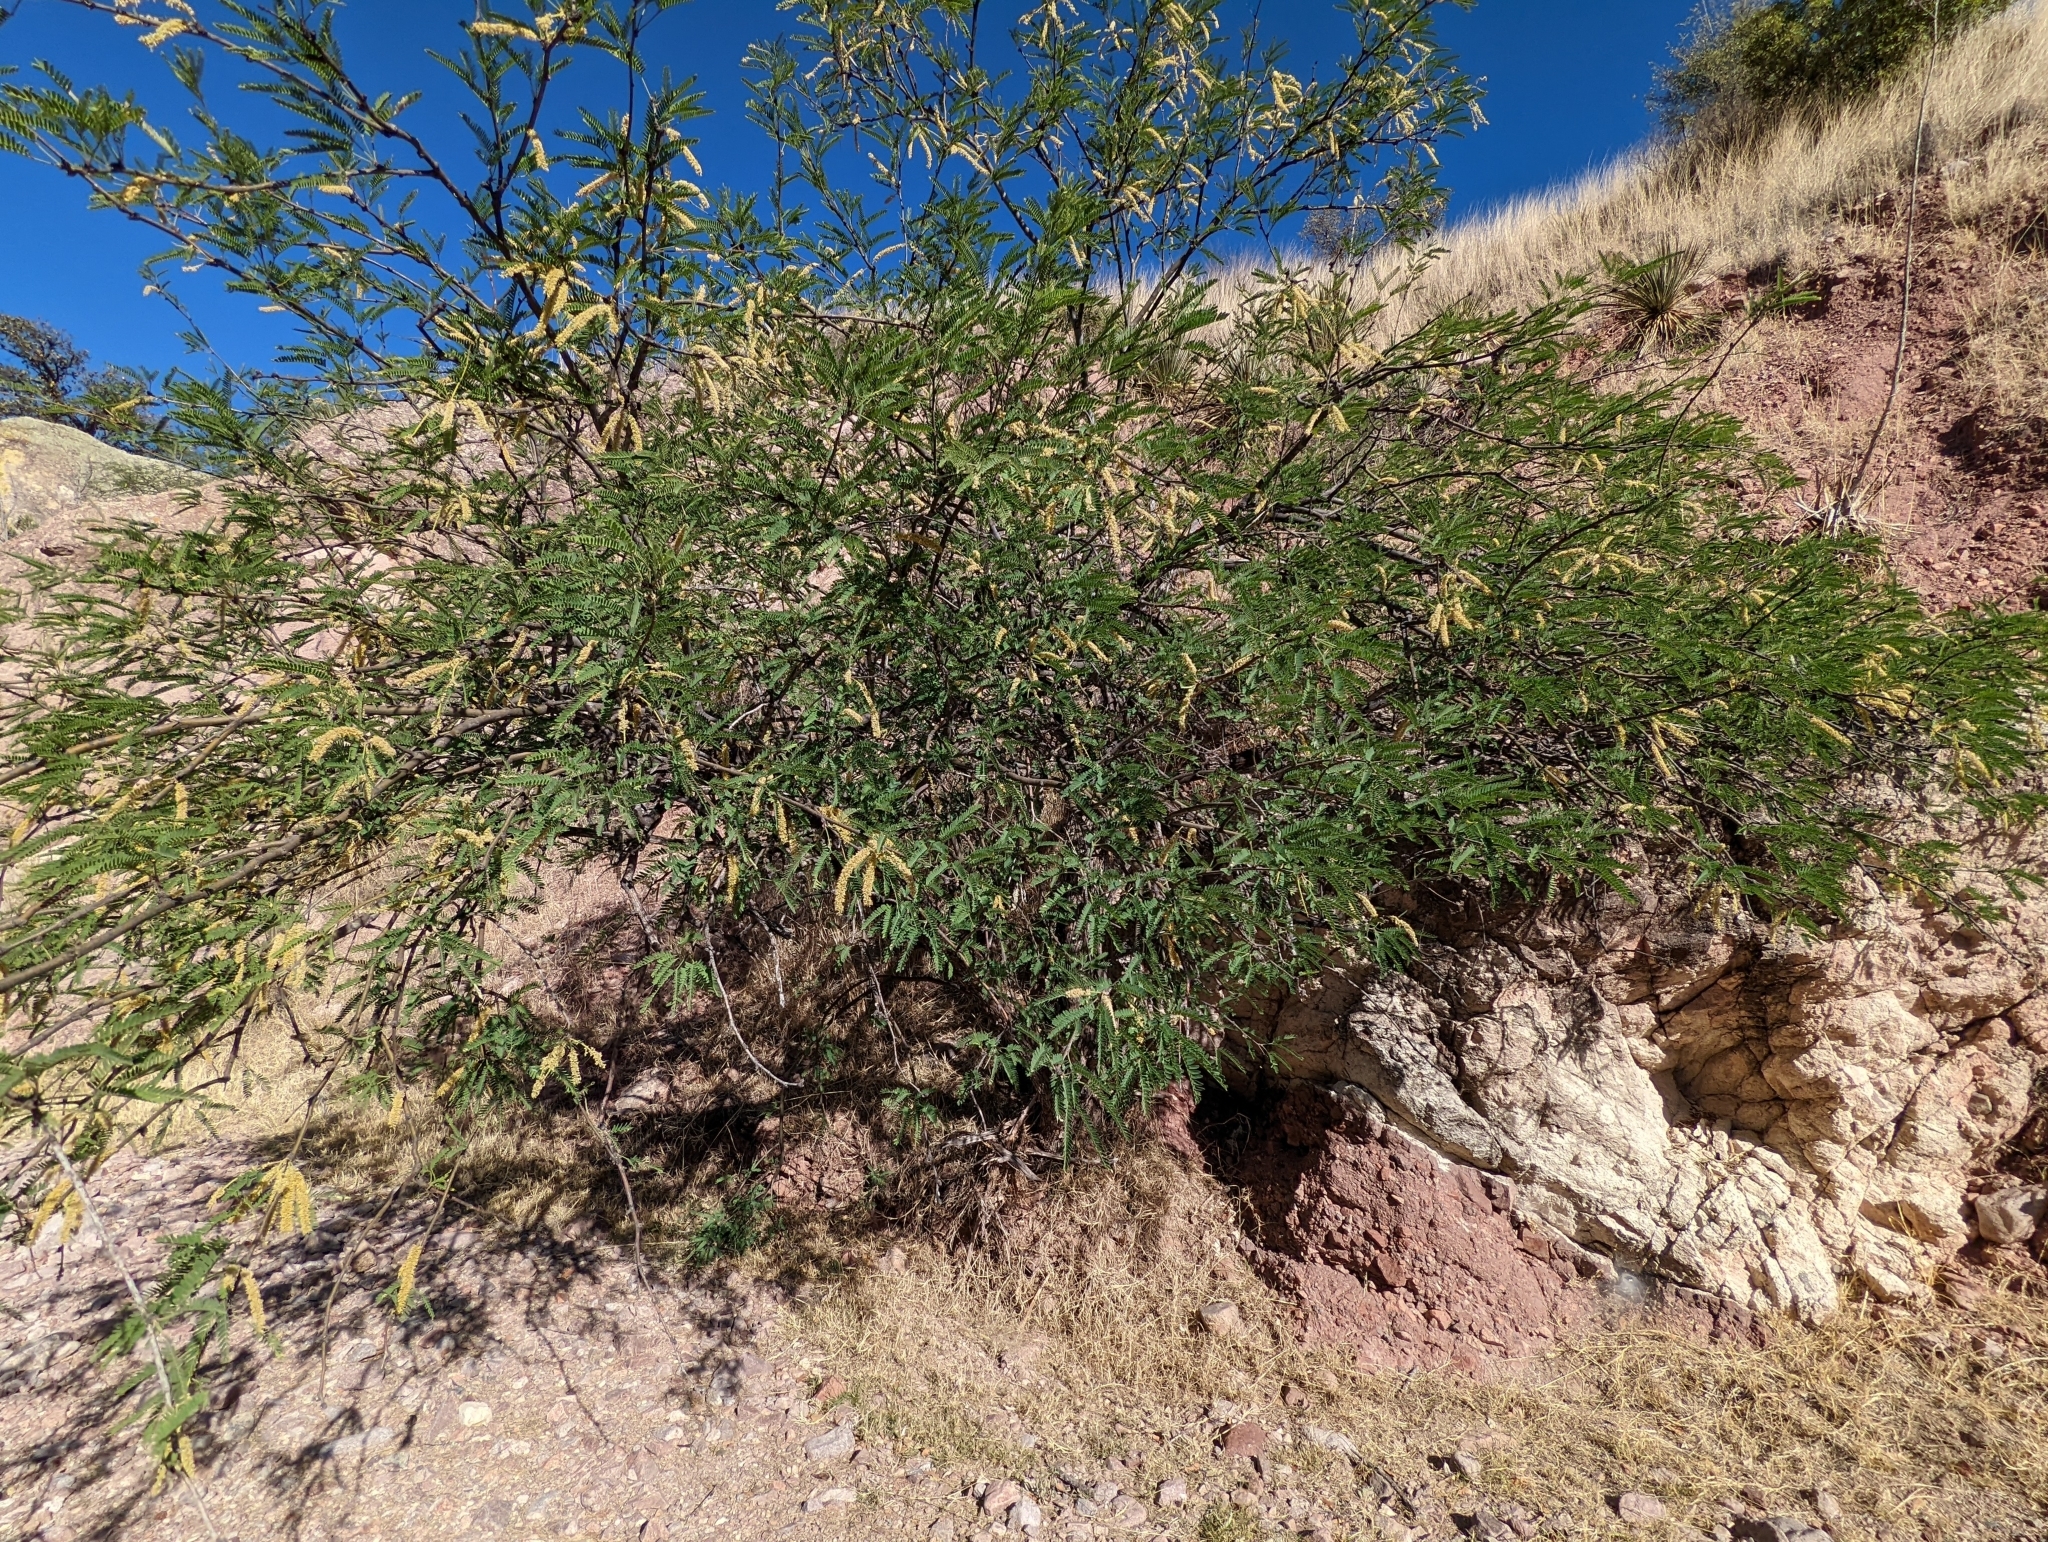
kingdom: Plantae
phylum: Tracheophyta
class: Magnoliopsida
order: Fabales
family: Fabaceae
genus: Prosopis
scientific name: Prosopis velutina
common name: Velvet mesquite
